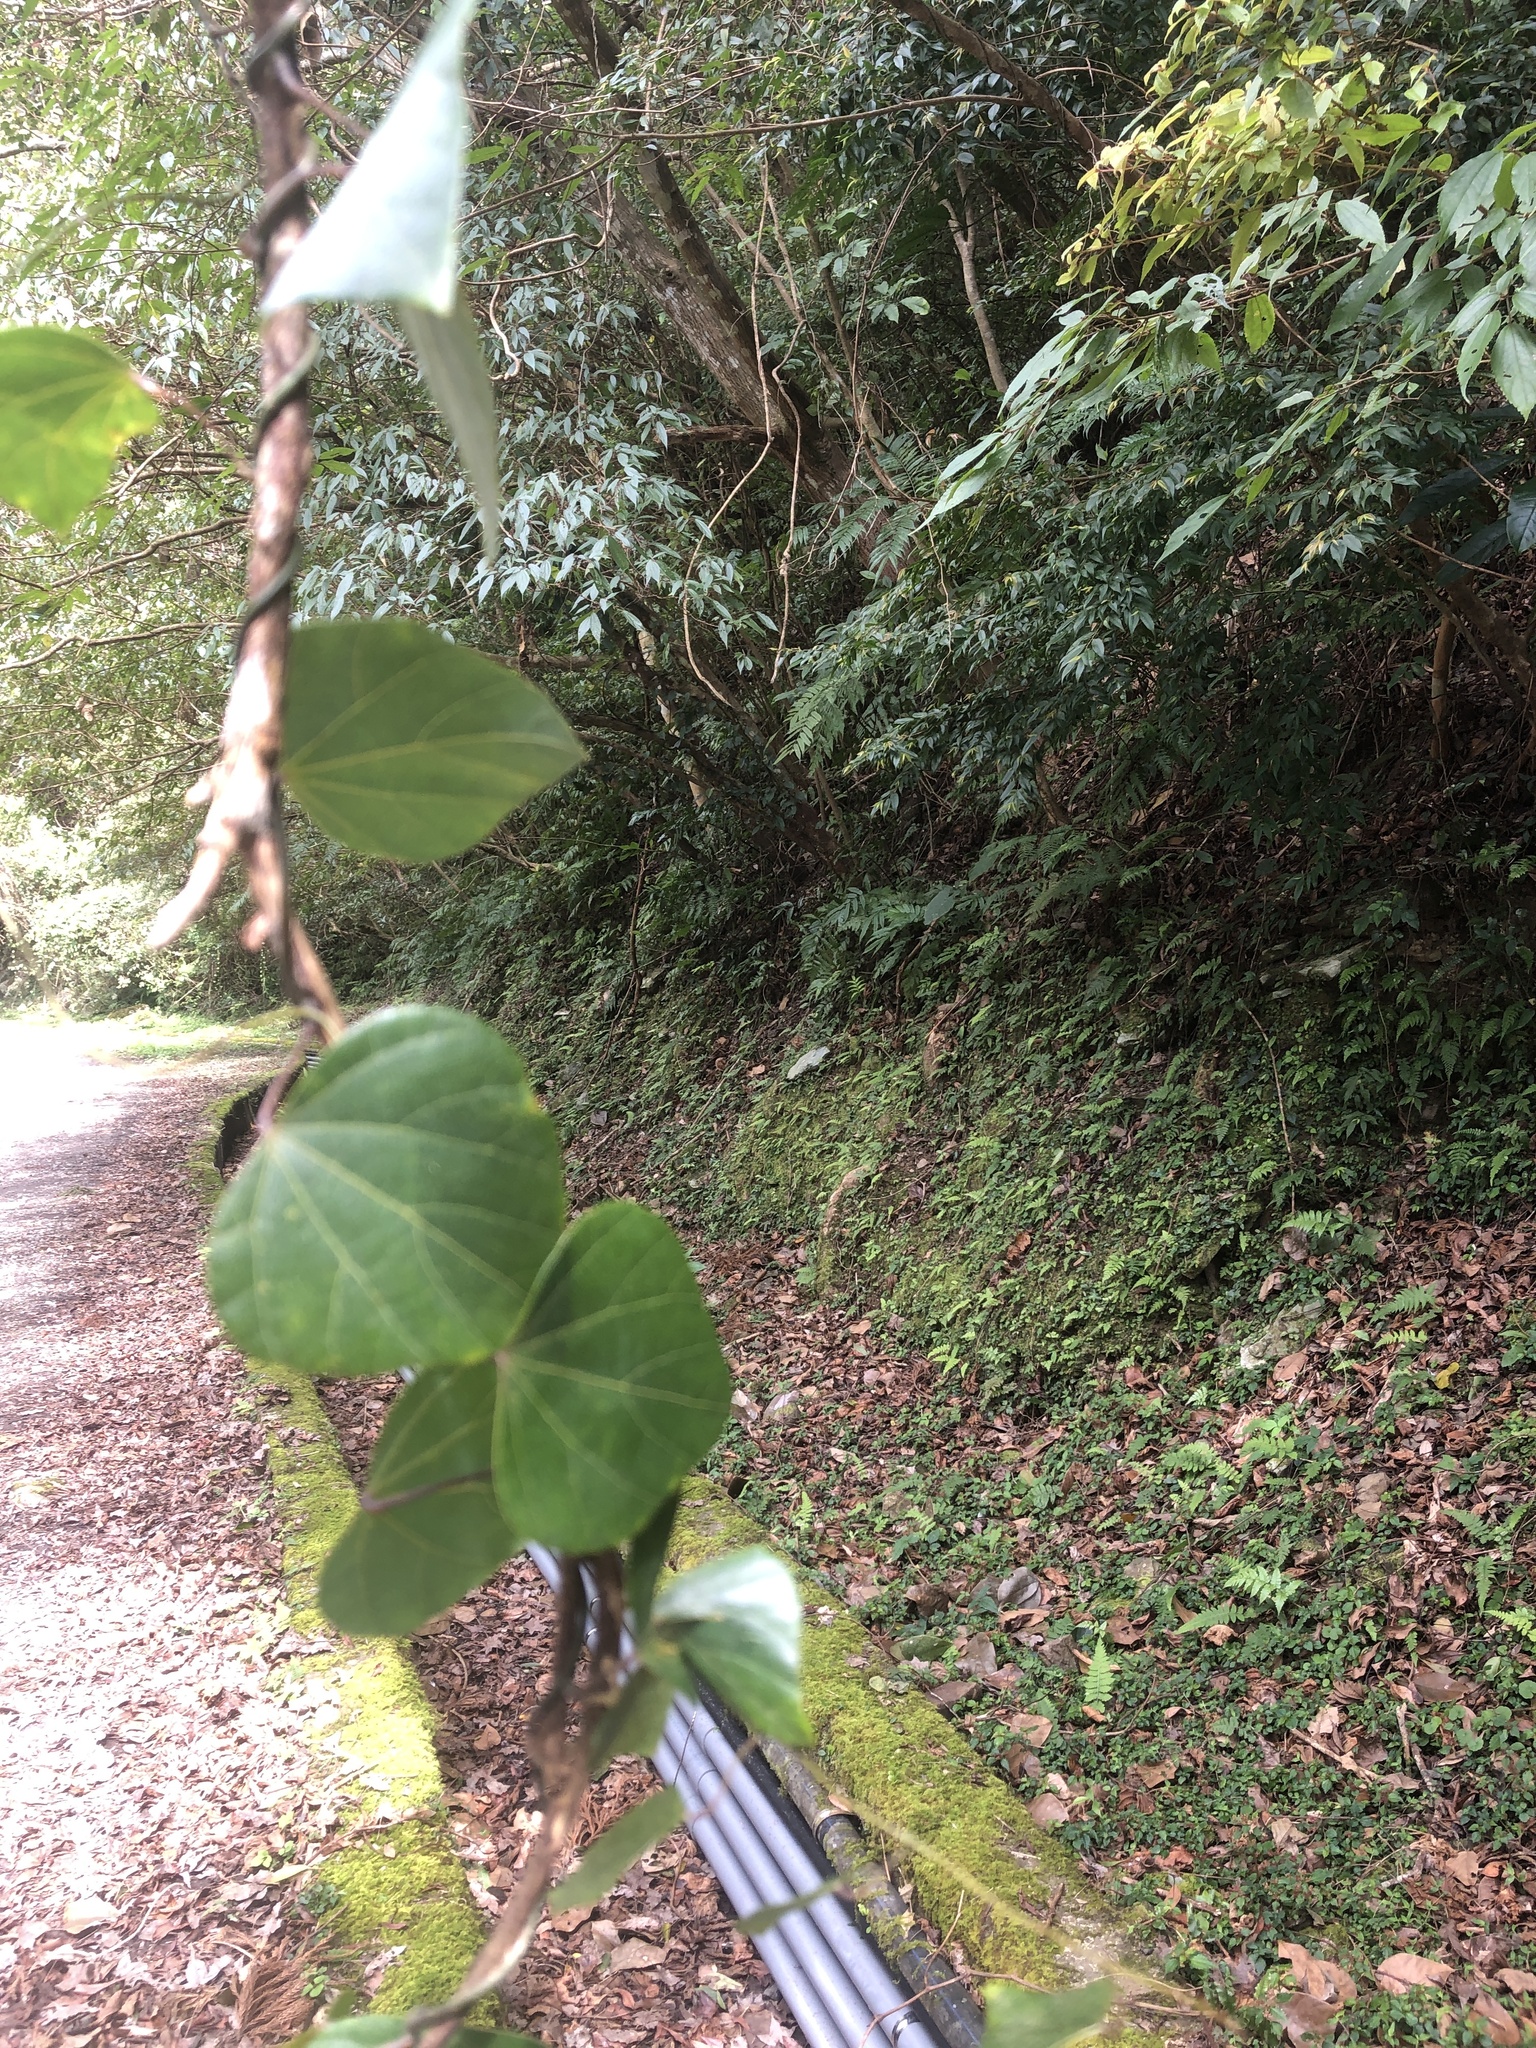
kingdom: Plantae
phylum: Tracheophyta
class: Magnoliopsida
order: Ranunculales
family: Menispermaceae
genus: Pericampylus
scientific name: Pericampylus glaucus
